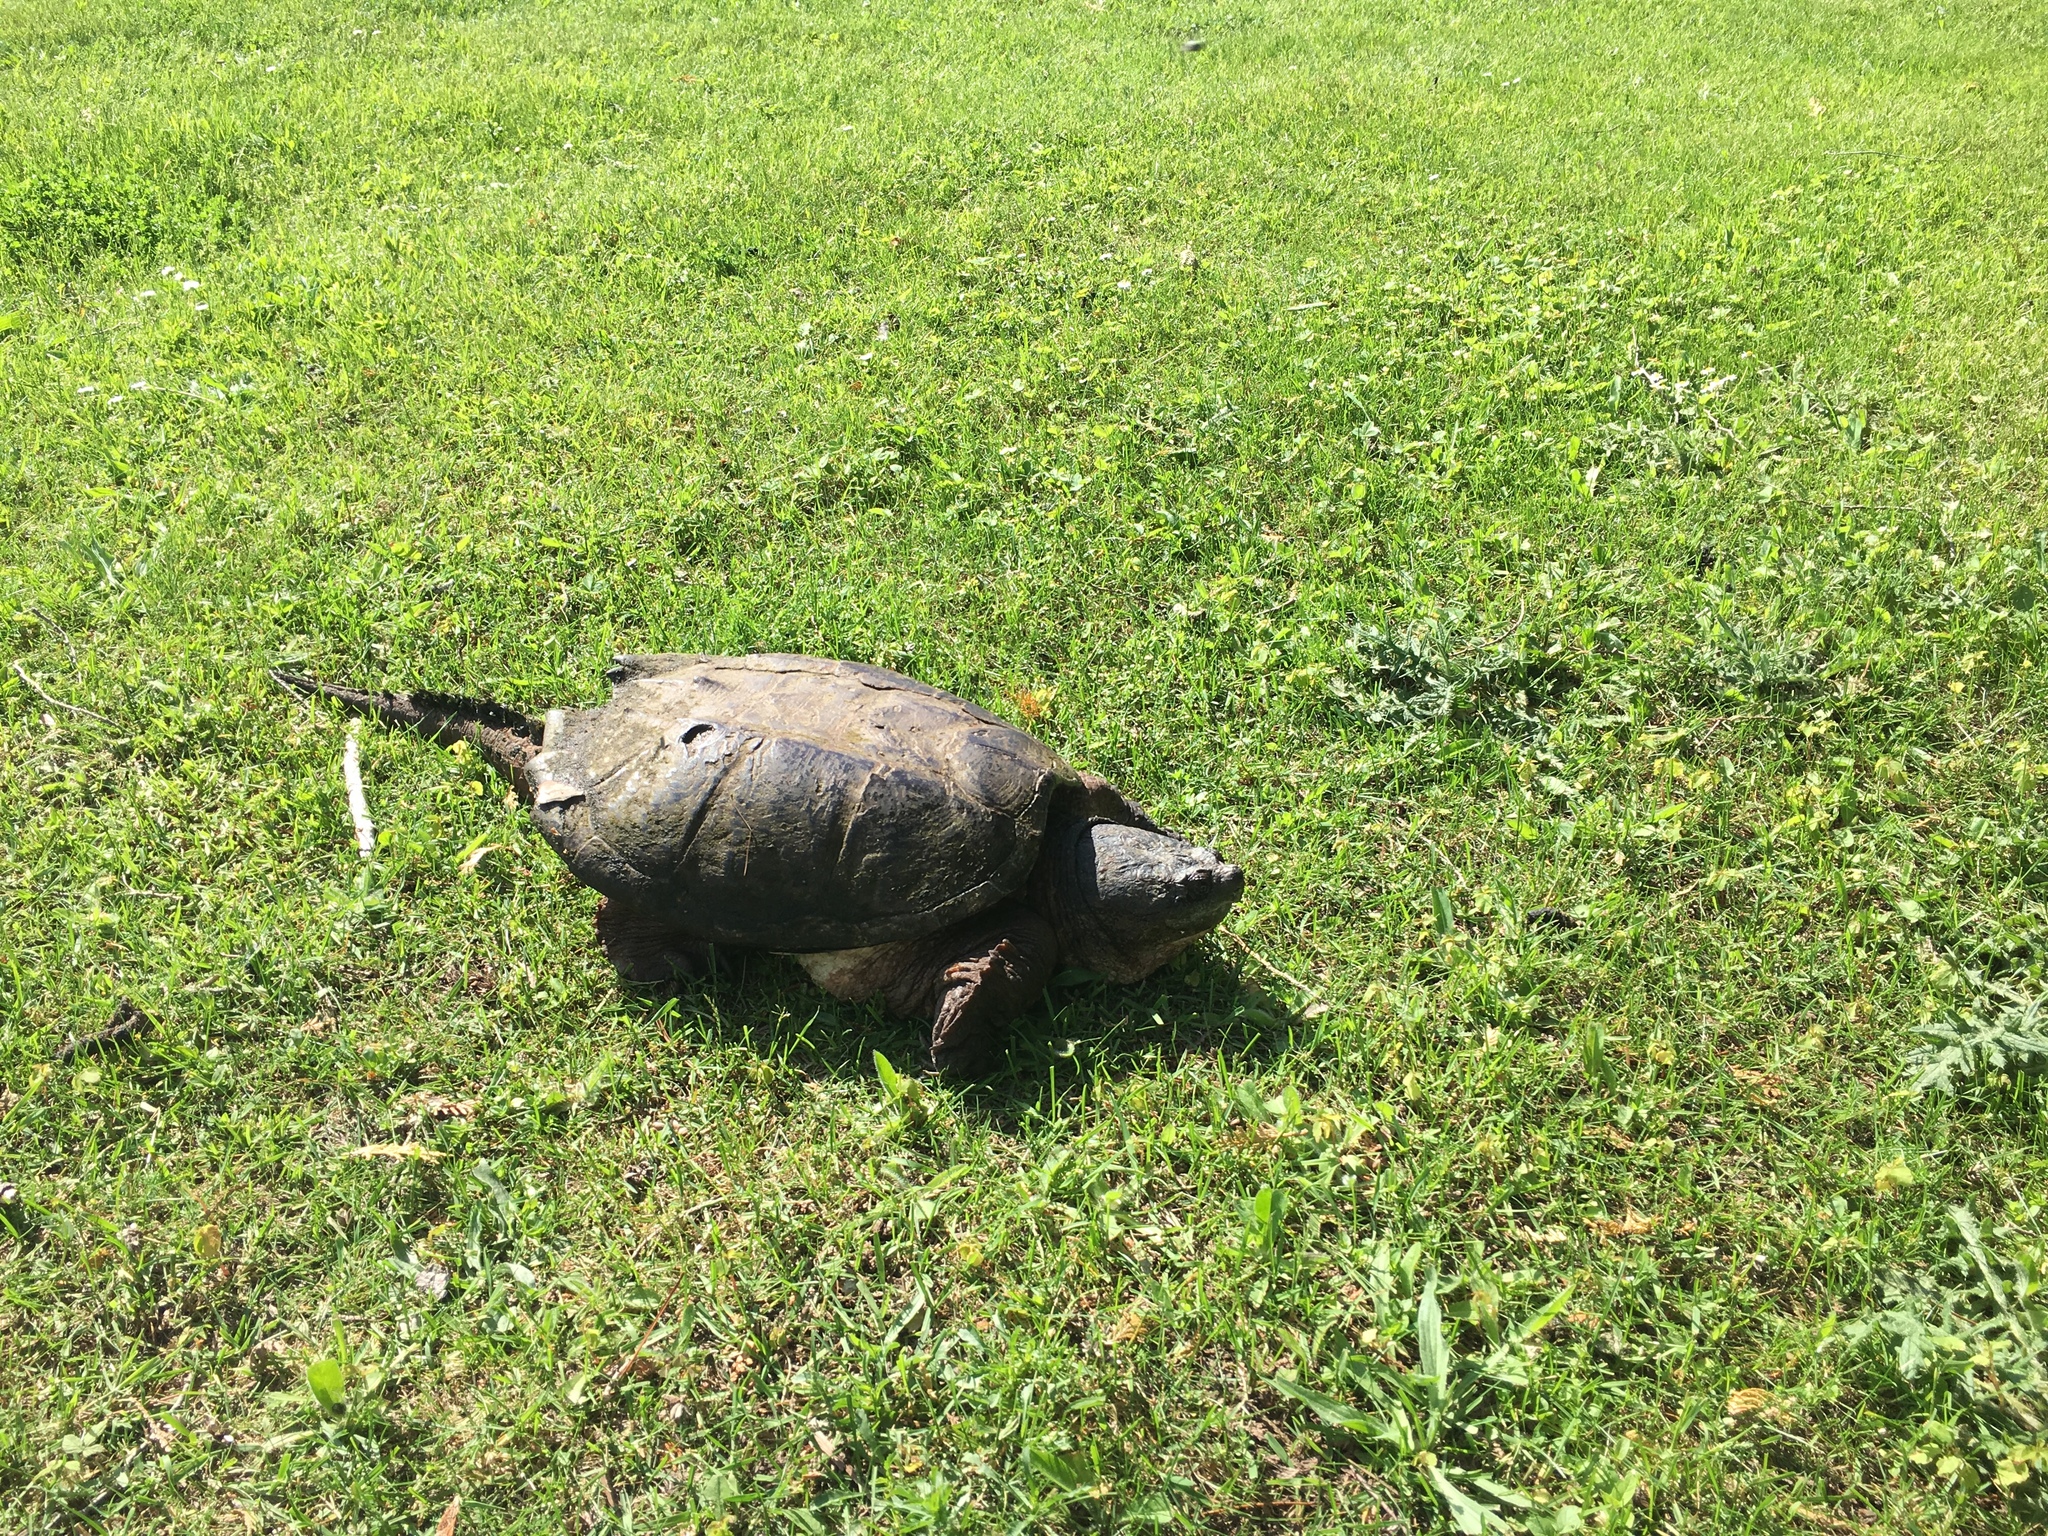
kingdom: Animalia
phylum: Chordata
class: Testudines
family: Chelydridae
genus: Chelydra
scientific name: Chelydra serpentina
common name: Common snapping turtle
